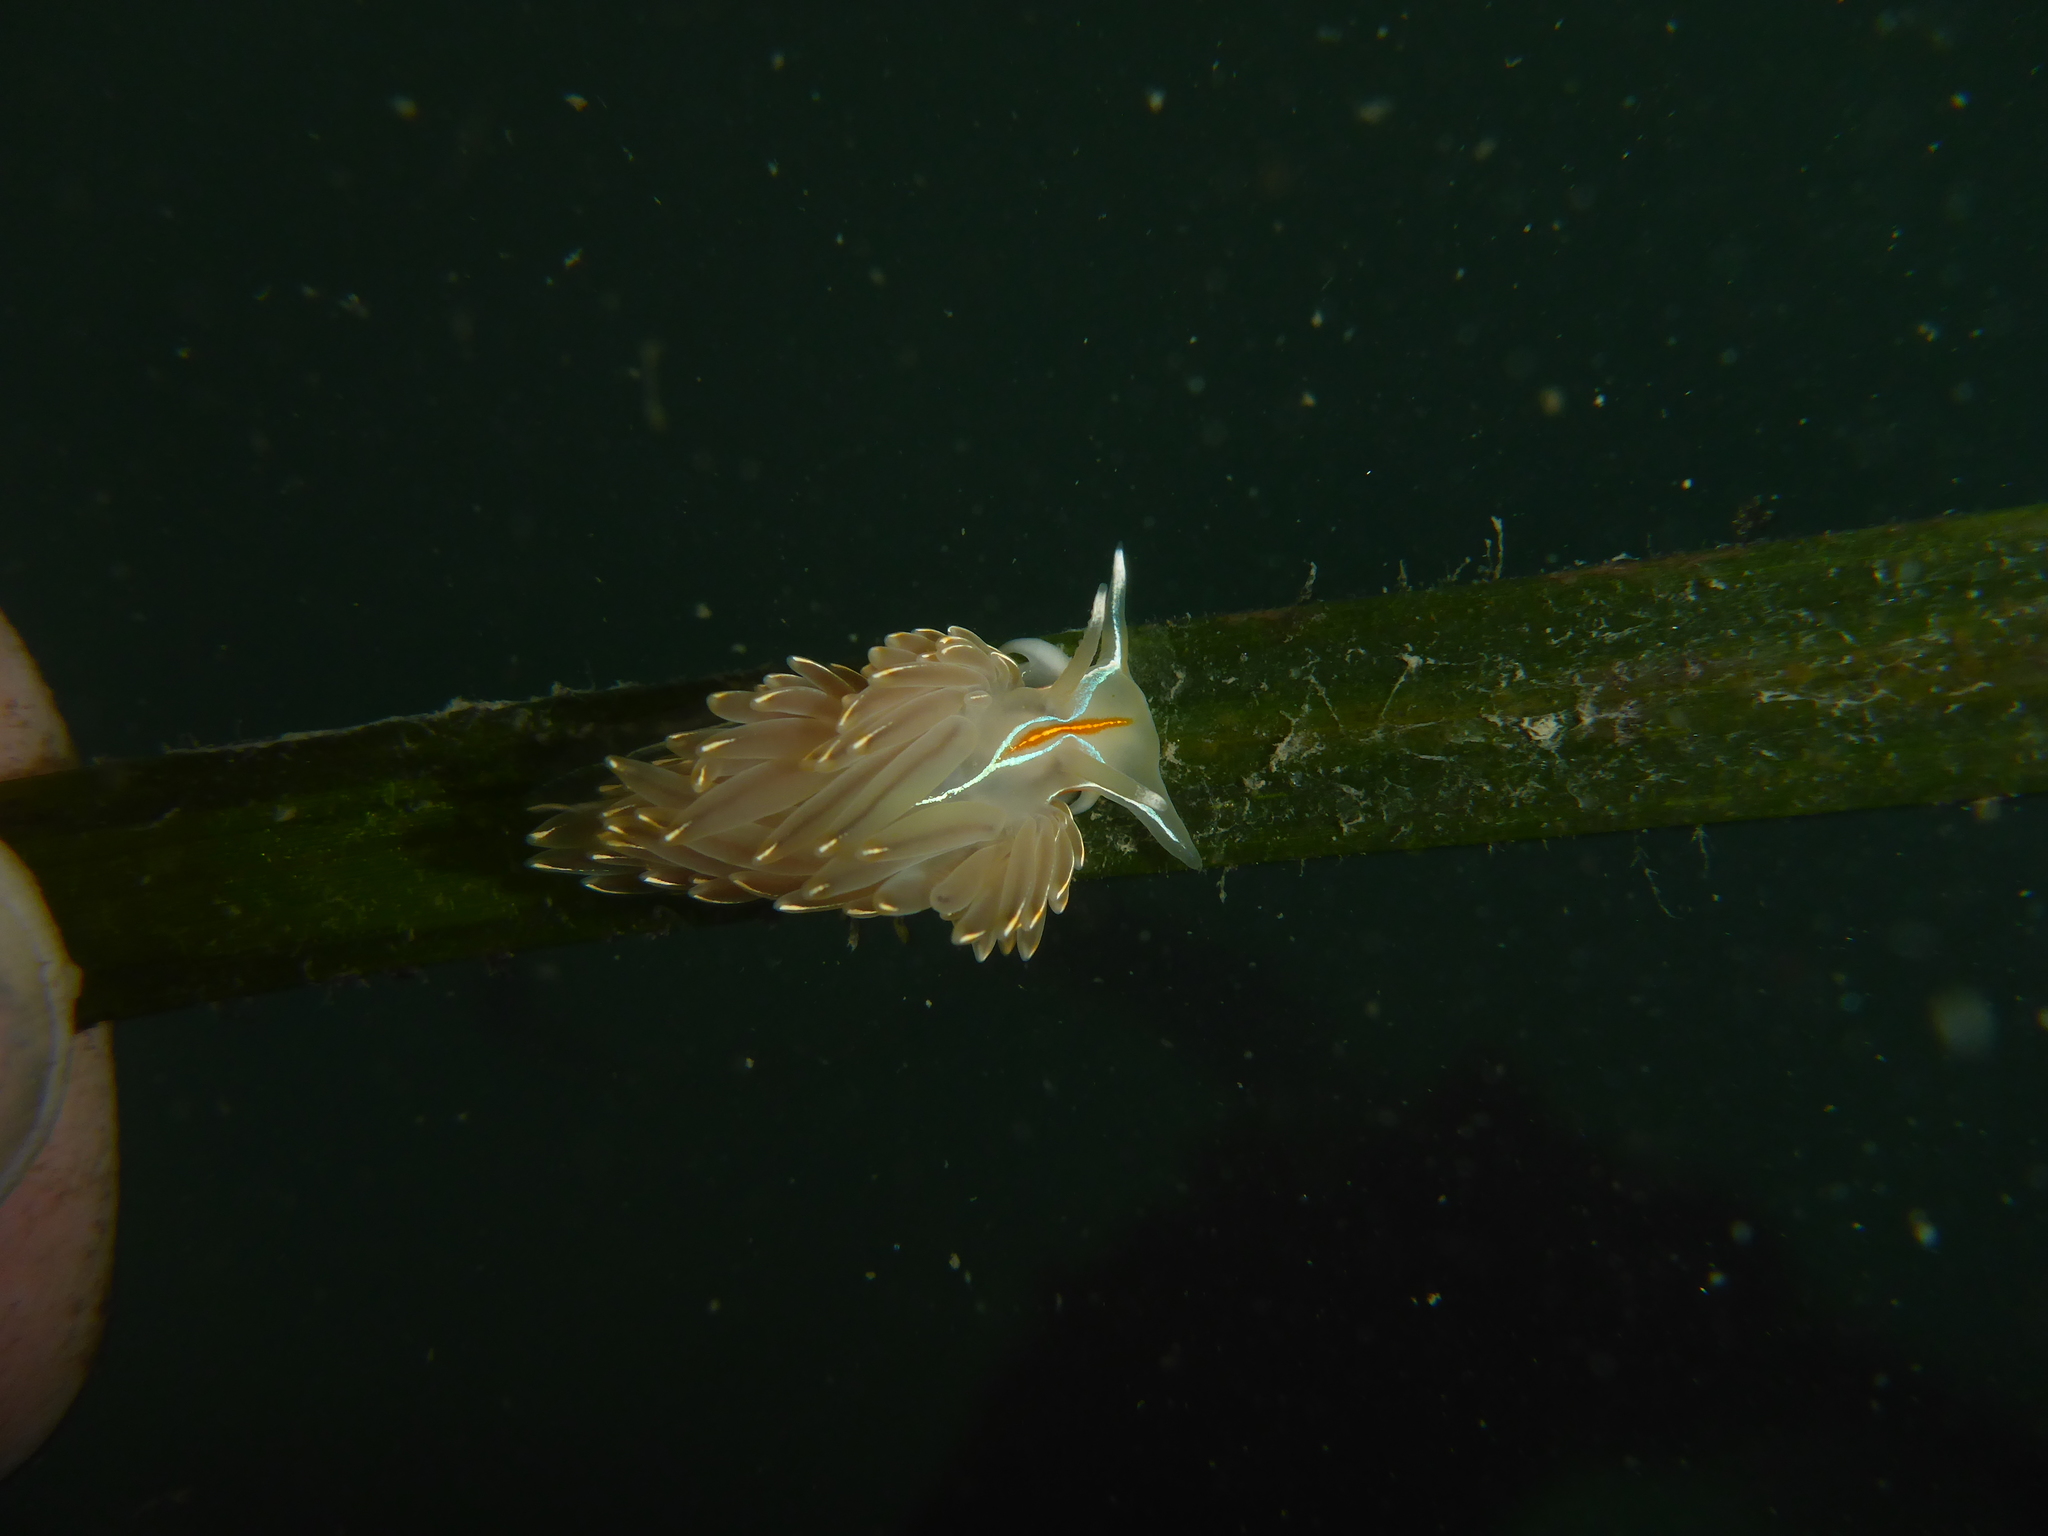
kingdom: Animalia
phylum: Mollusca
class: Gastropoda
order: Nudibranchia
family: Myrrhinidae
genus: Hermissenda
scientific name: Hermissenda crassicornis
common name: Hermissenda
